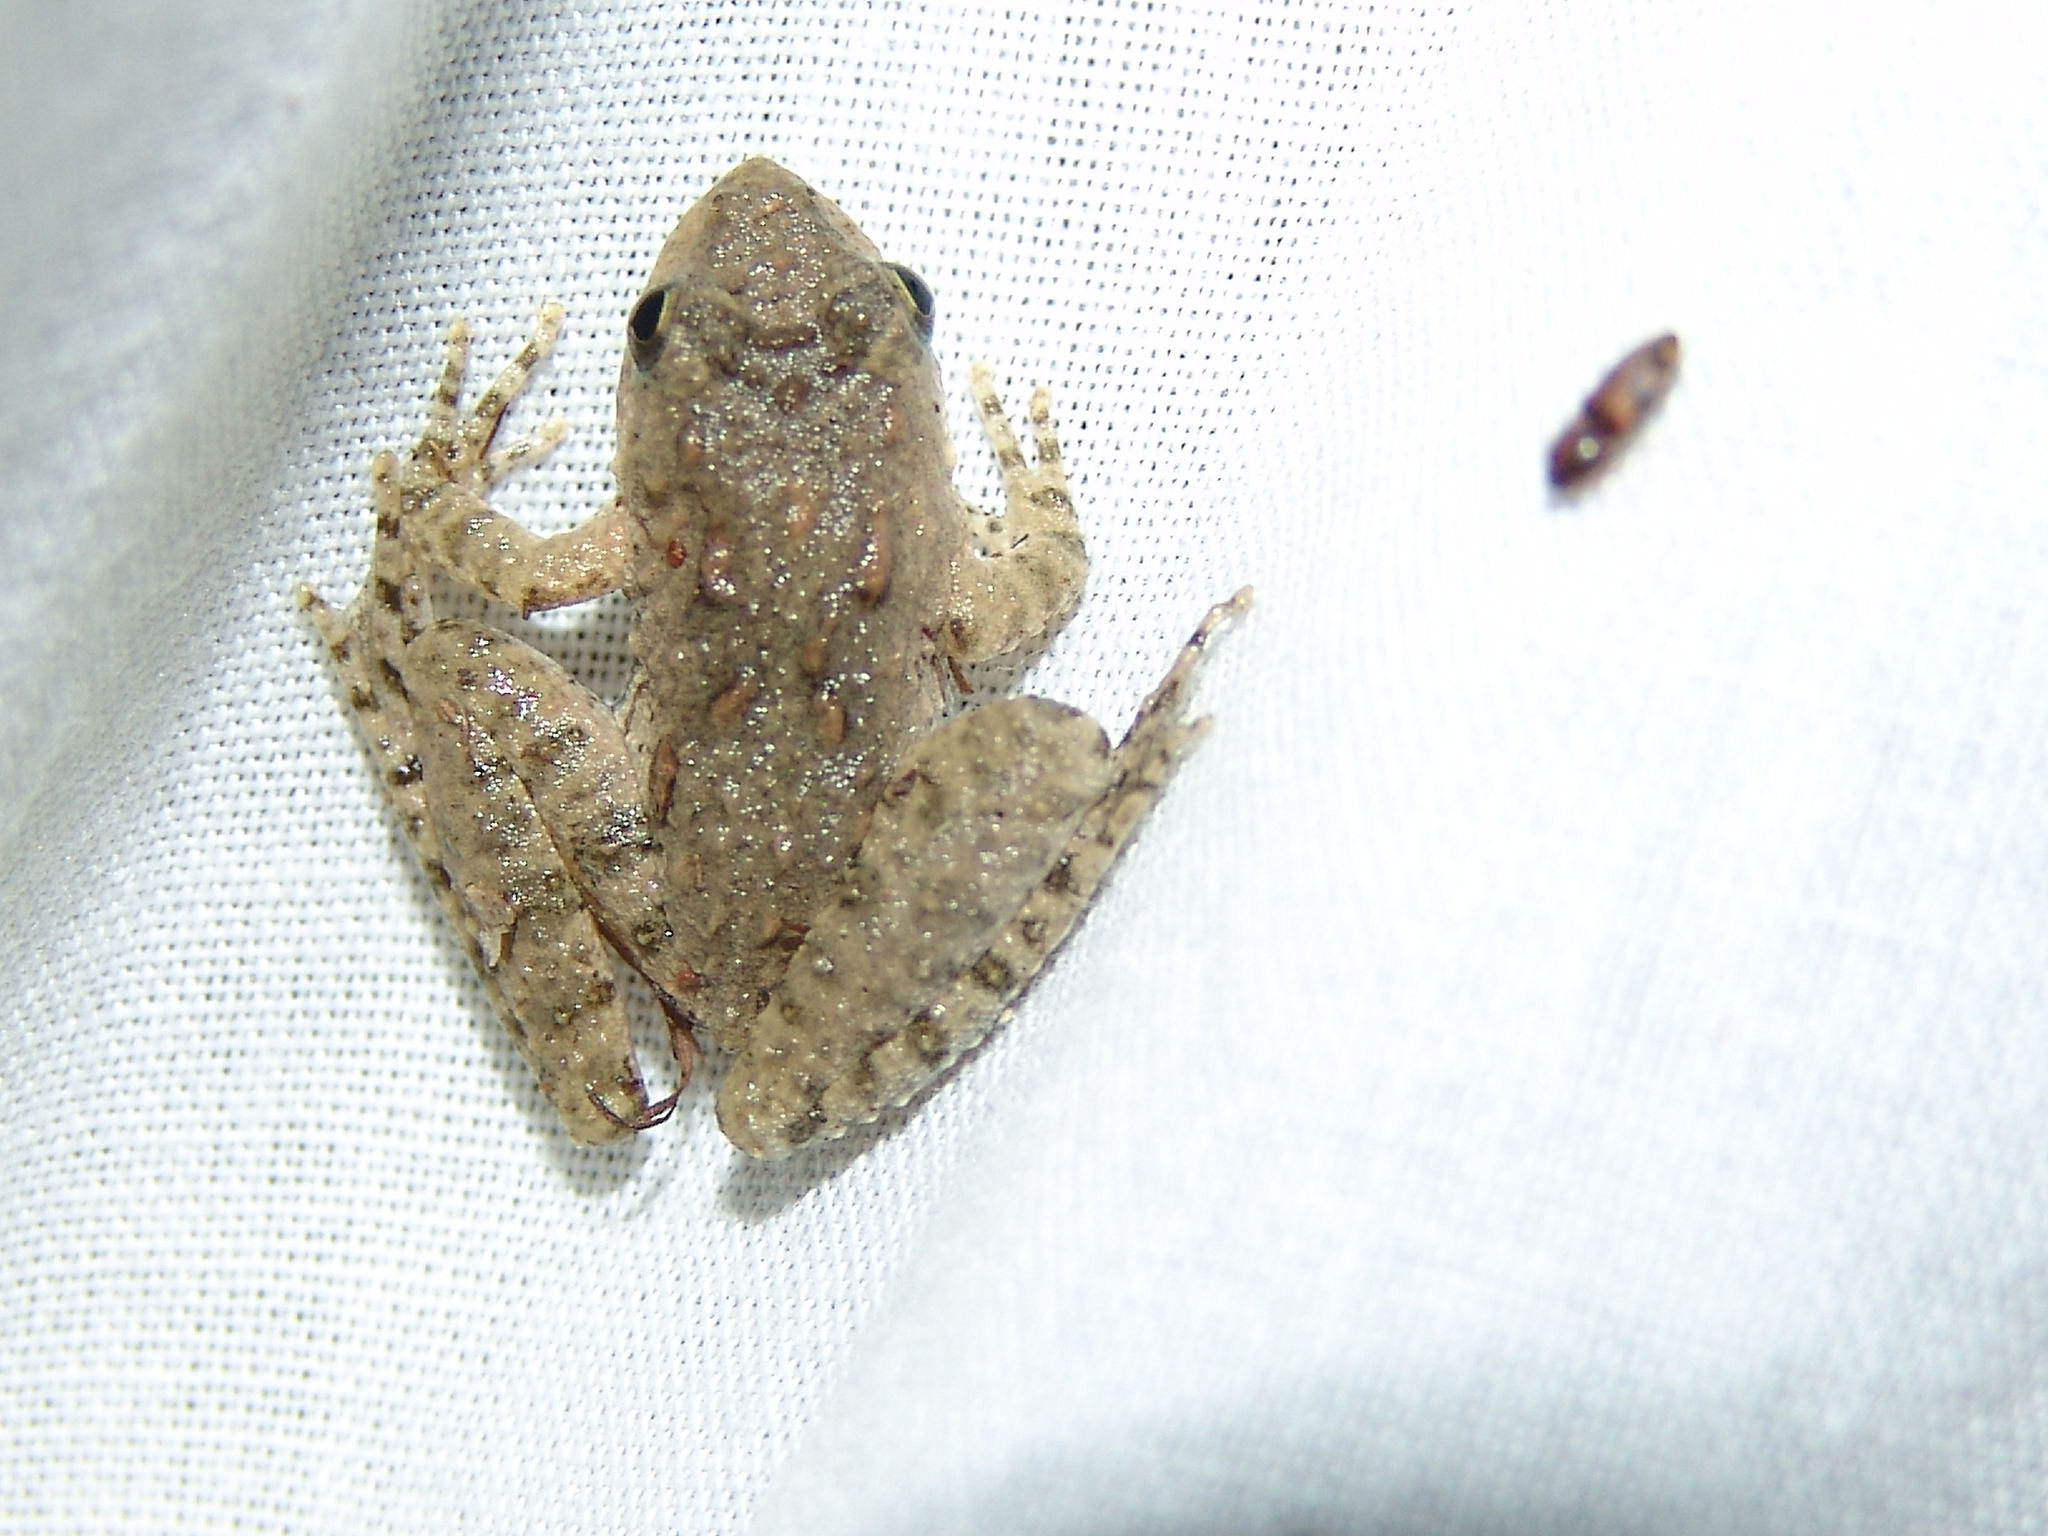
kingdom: Animalia
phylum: Chordata
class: Amphibia
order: Anura
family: Hylidae
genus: Acris
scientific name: Acris blanchardi
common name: Blanchard's cricket frog
